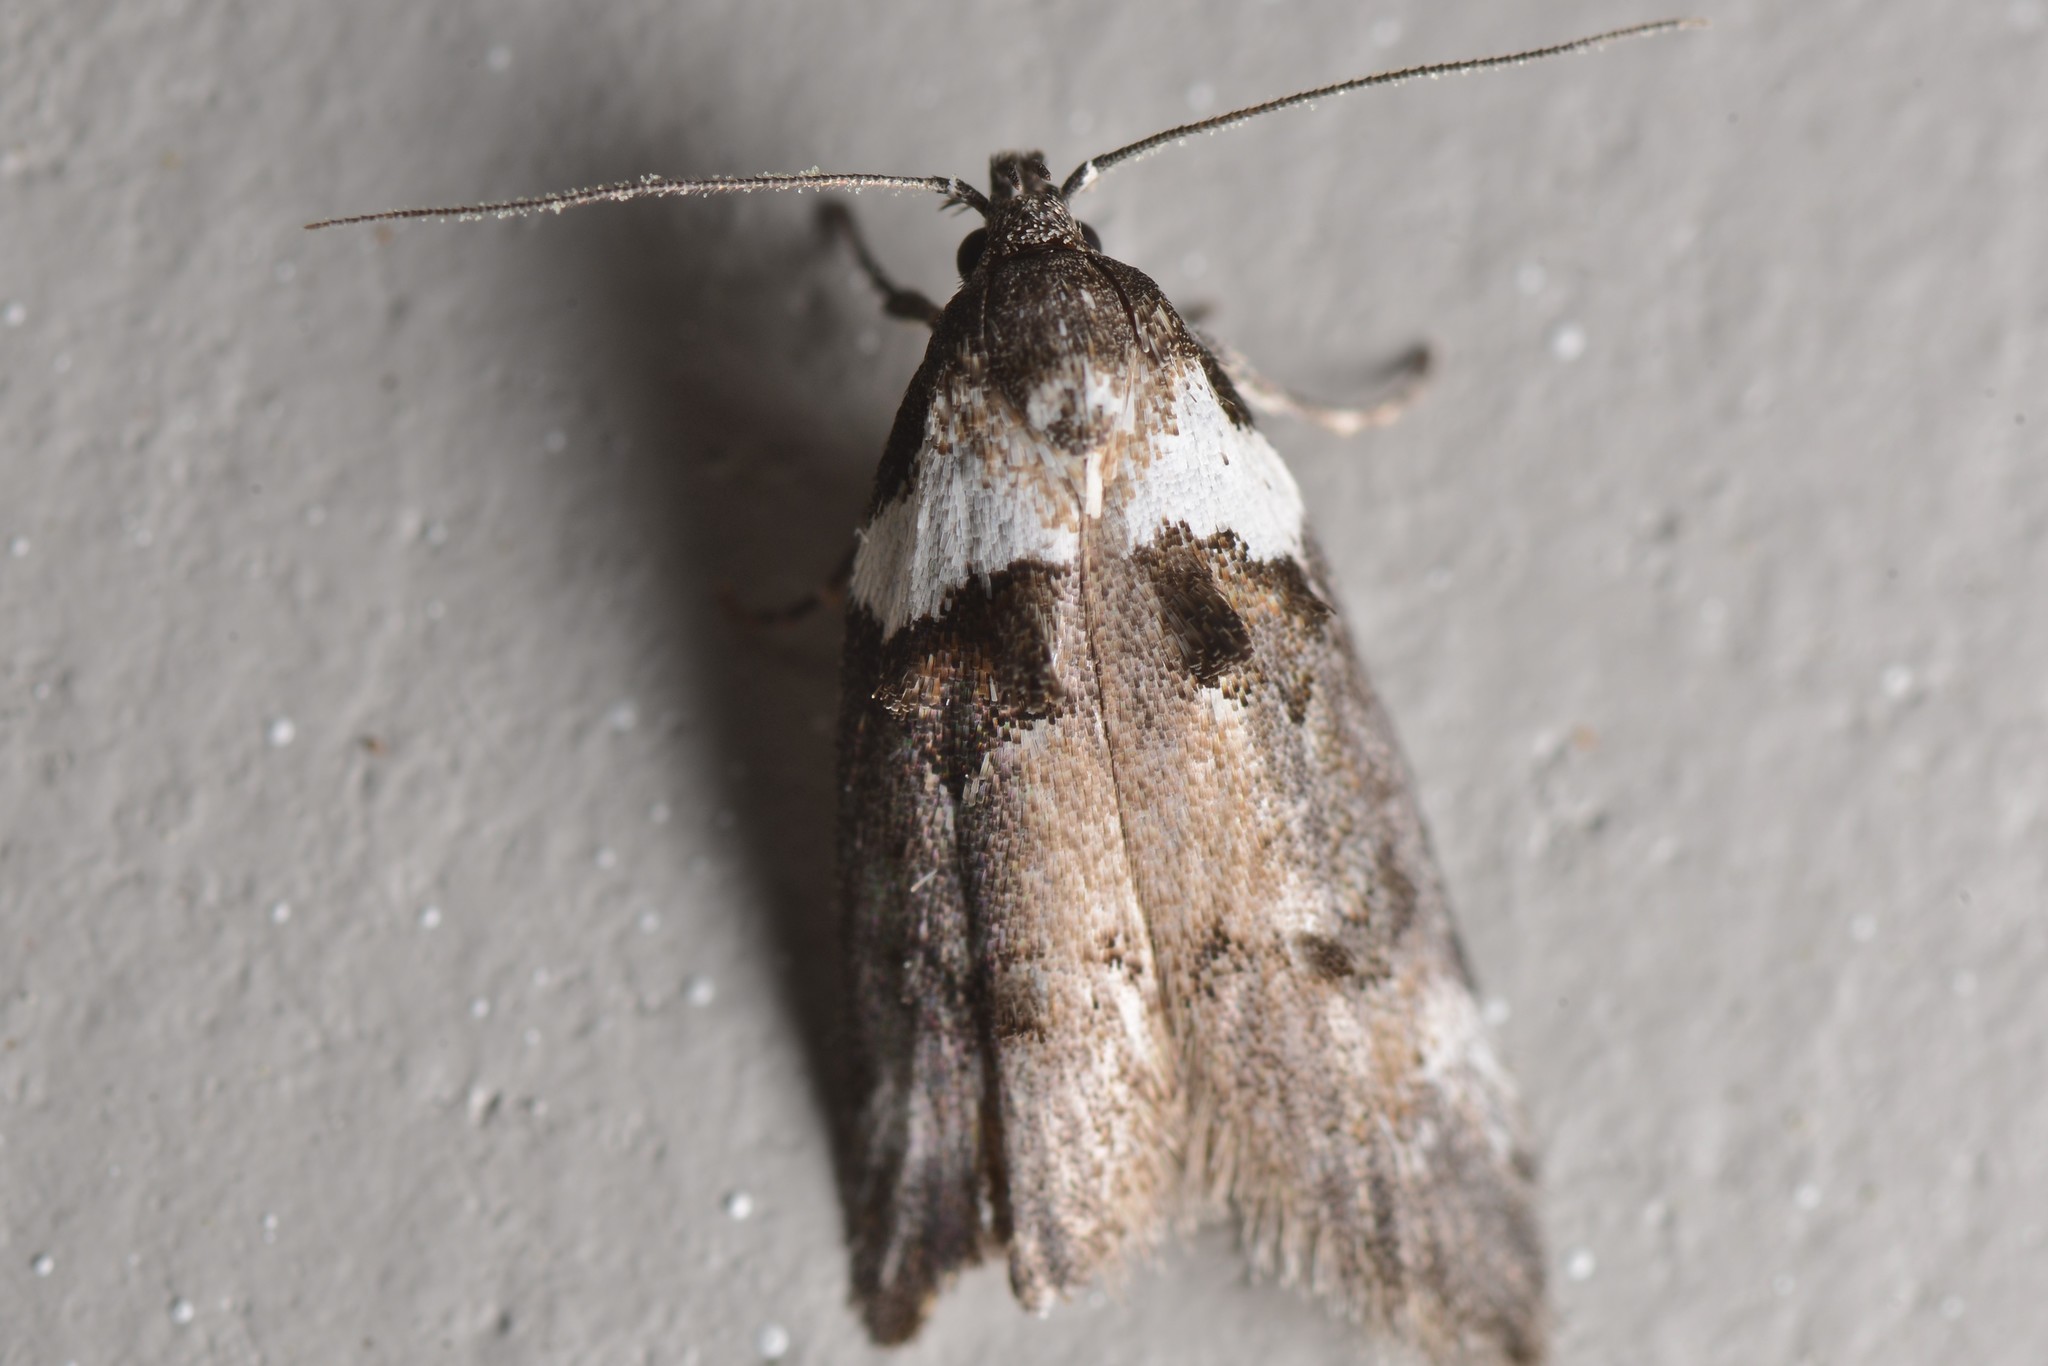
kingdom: Animalia
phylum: Arthropoda
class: Insecta
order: Lepidoptera
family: Oecophoridae
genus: Trachypepla
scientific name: Trachypepla conspicuella
